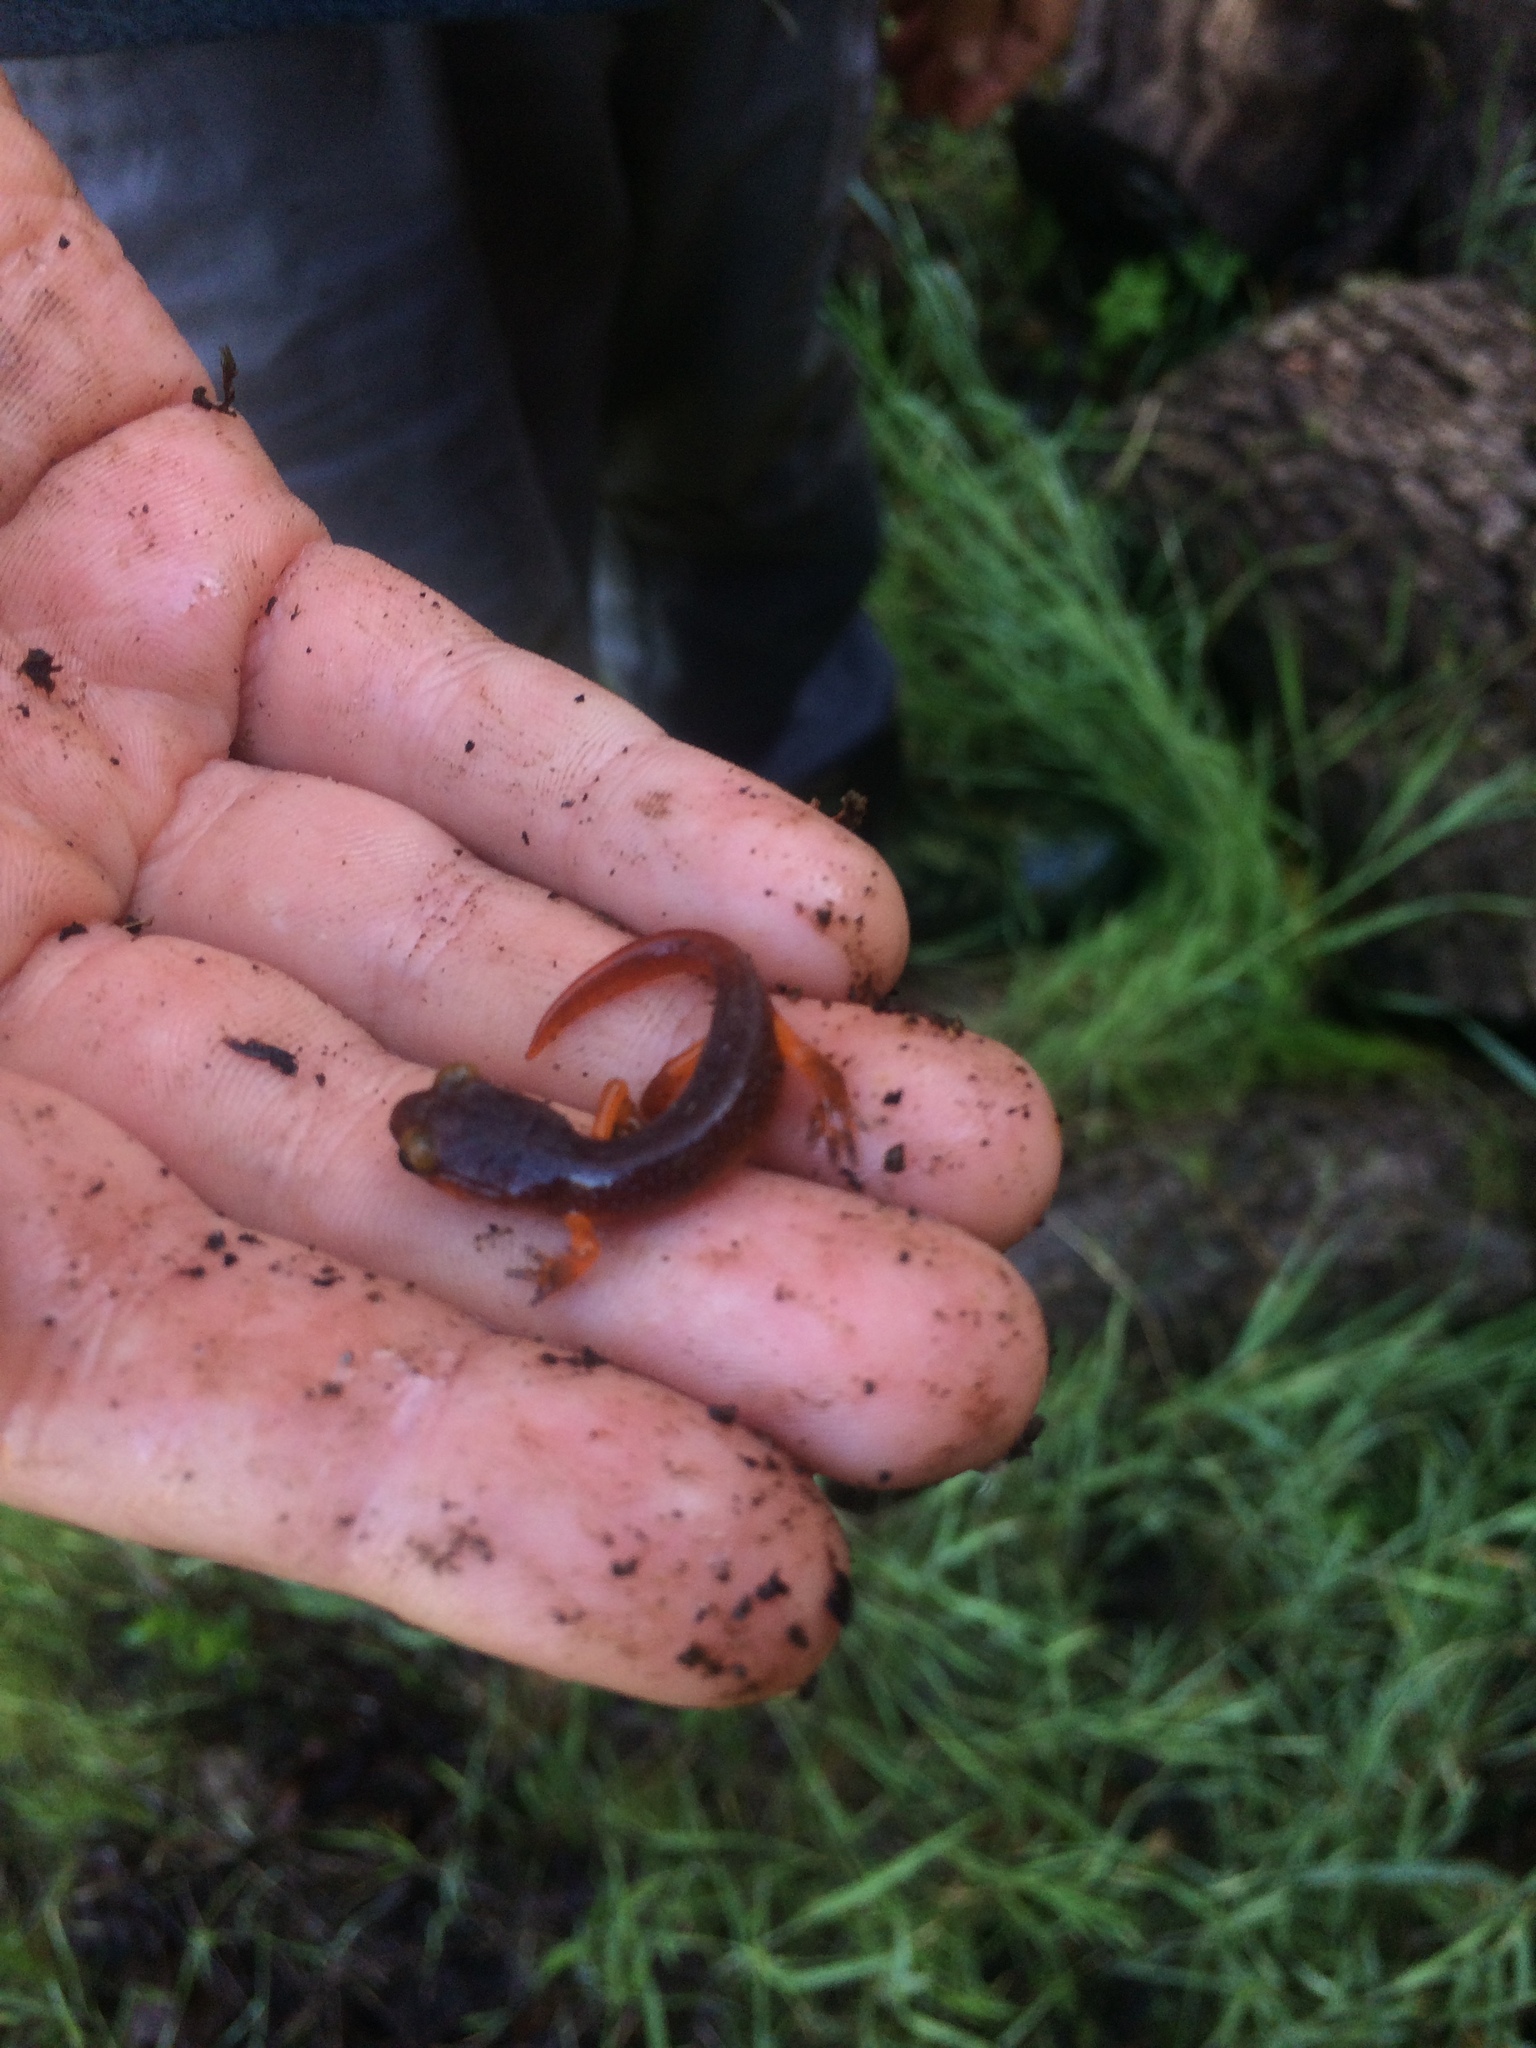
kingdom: Animalia
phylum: Chordata
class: Amphibia
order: Caudata
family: Plethodontidae
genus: Ensatina
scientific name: Ensatina eschscholtzii
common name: Ensatina
